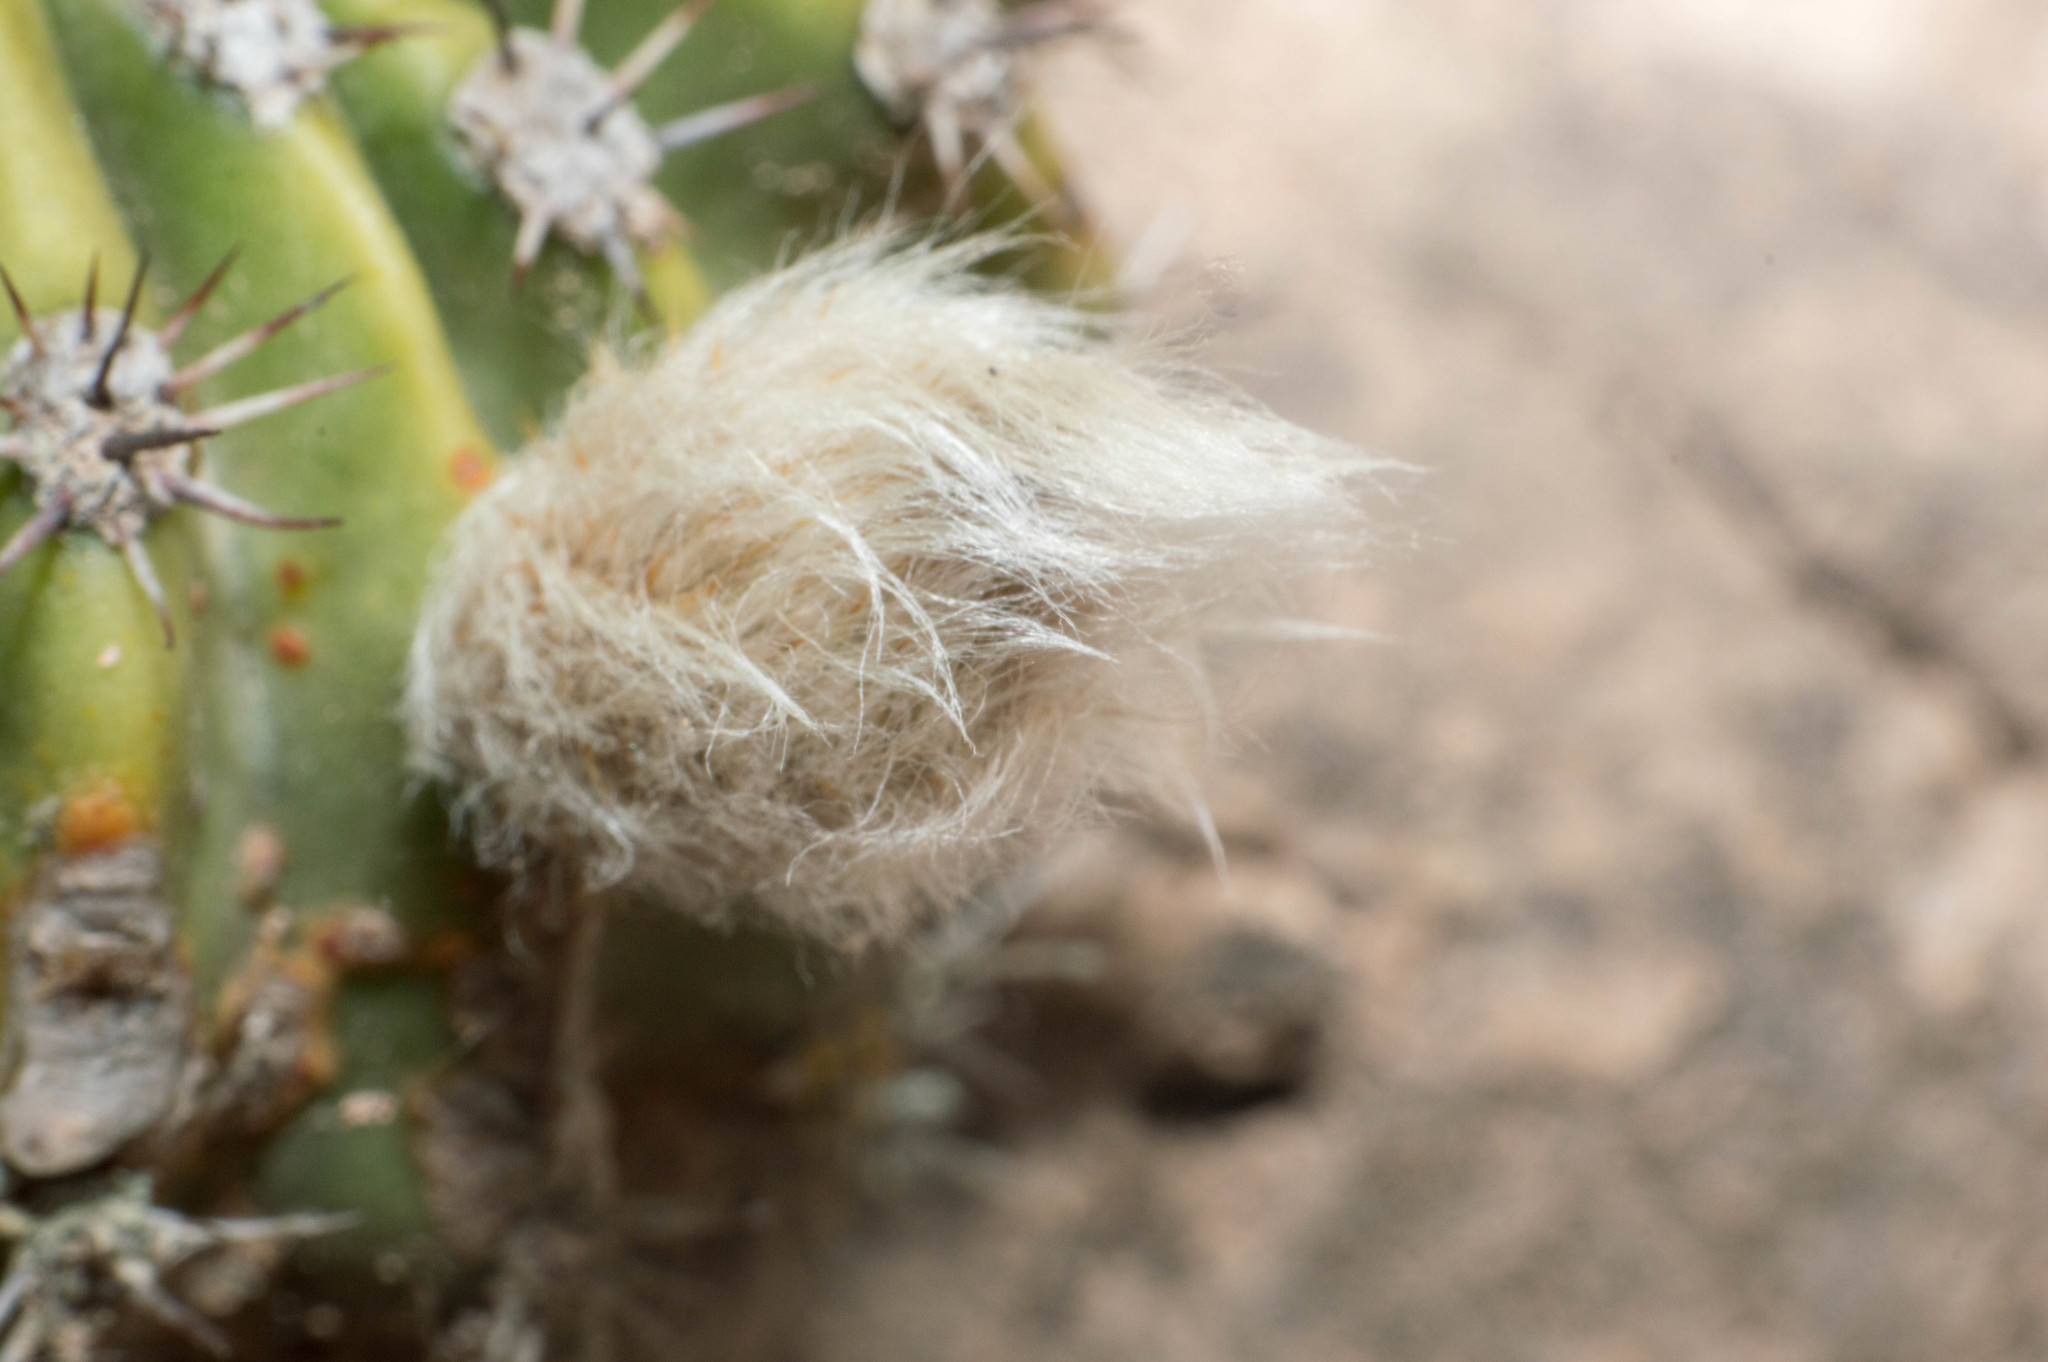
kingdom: Plantae
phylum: Tracheophyta
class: Magnoliopsida
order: Caryophyllales
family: Cactaceae
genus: Echinopsis
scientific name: Echinopsis oxygona
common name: Red easter-lily cactus
